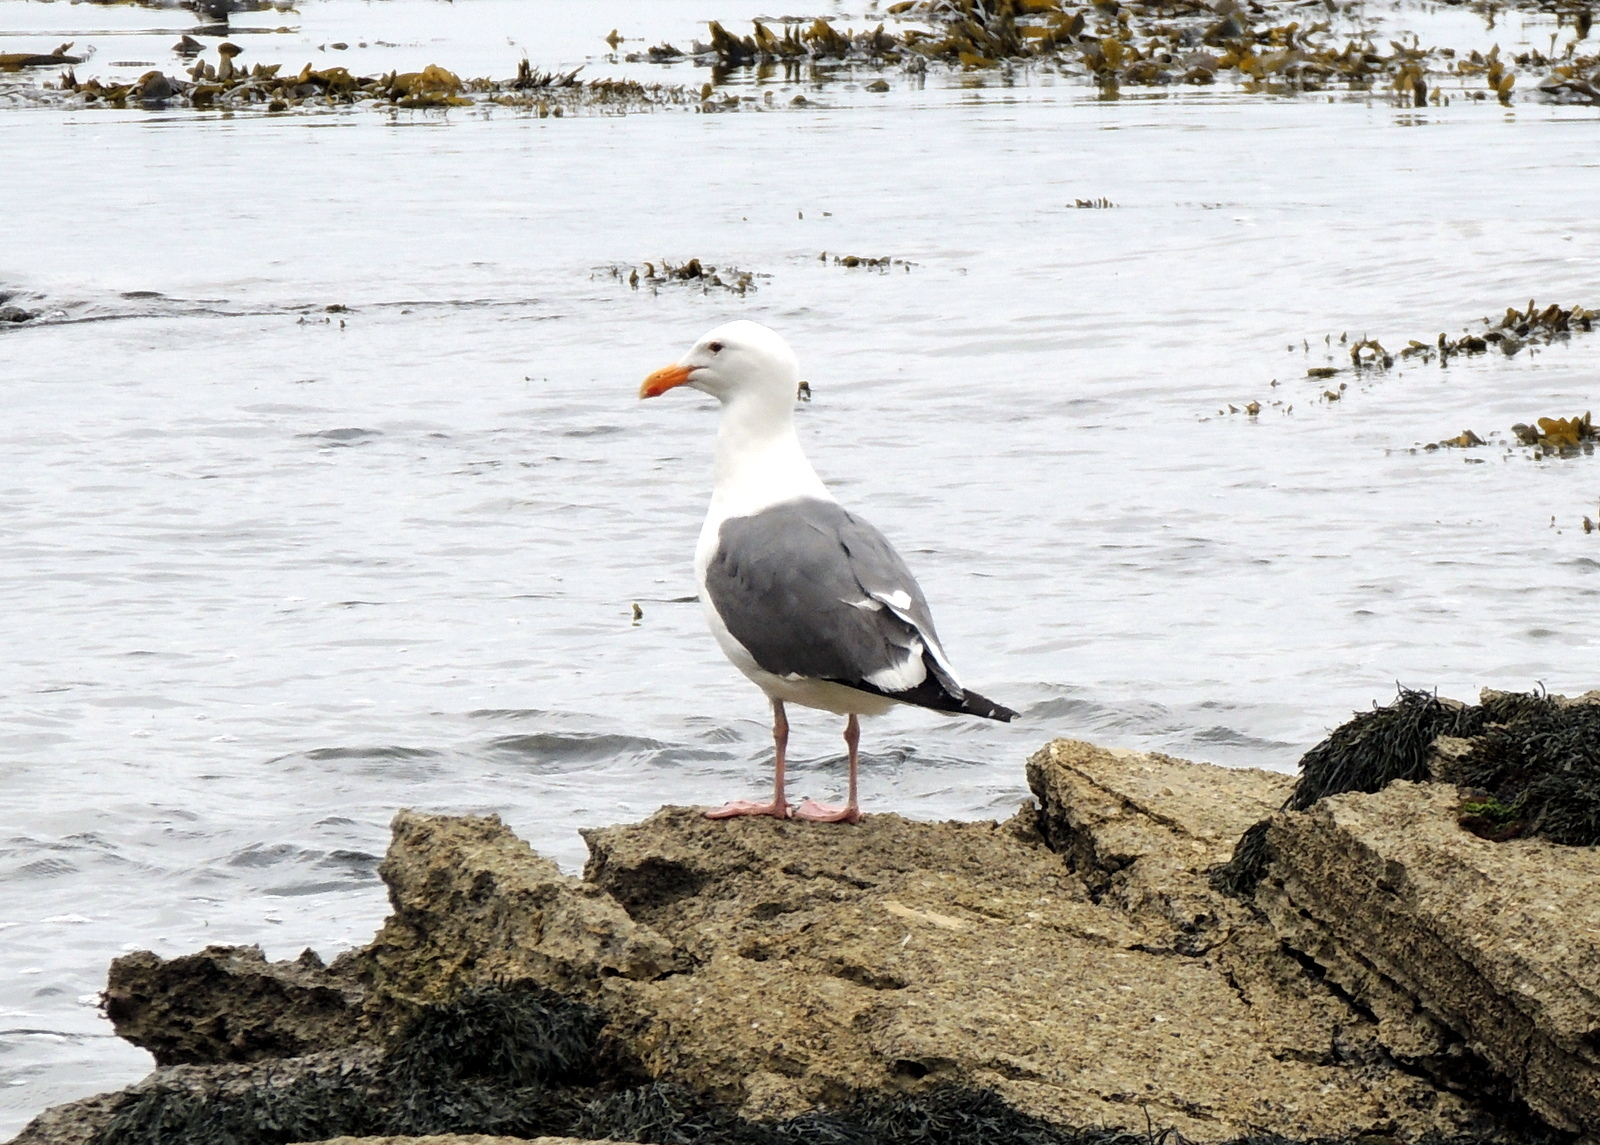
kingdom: Animalia
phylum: Chordata
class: Aves
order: Charadriiformes
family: Laridae
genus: Larus
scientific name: Larus occidentalis
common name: Western gull
